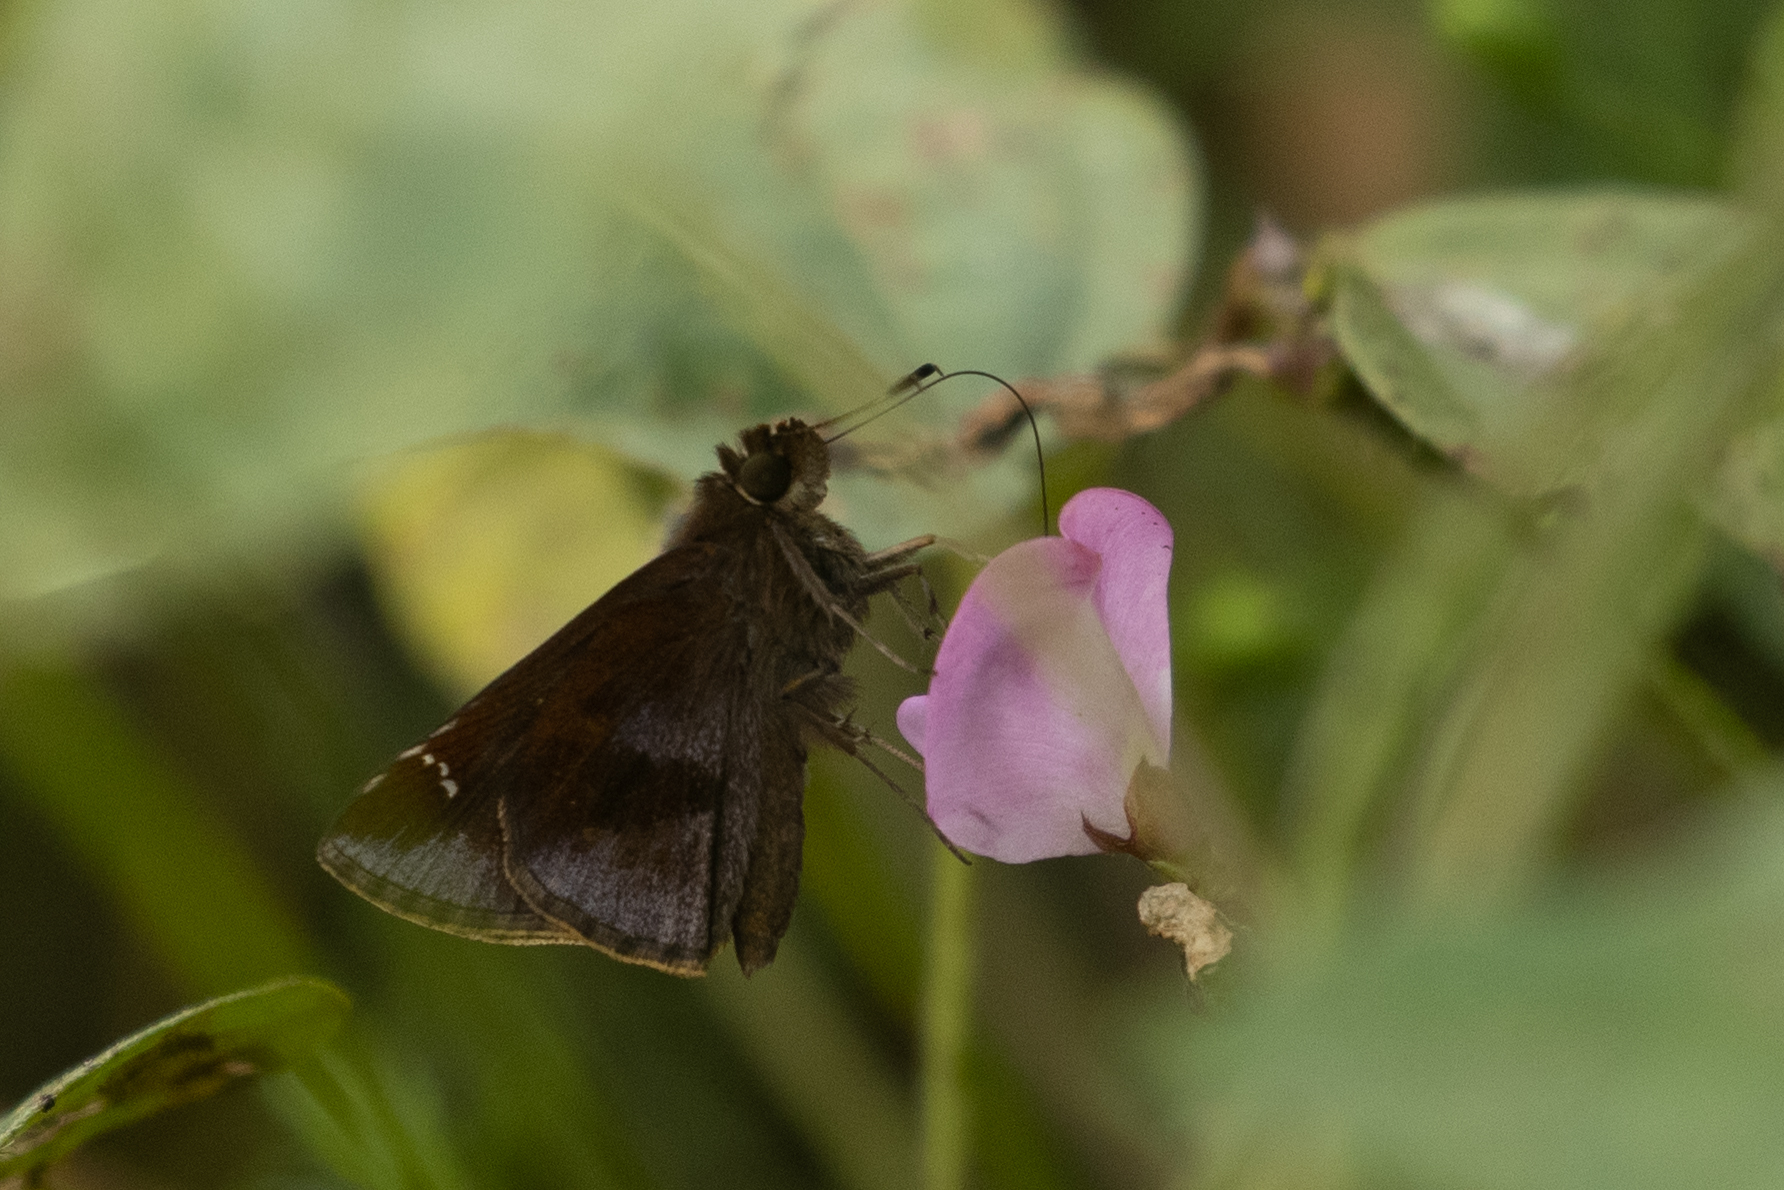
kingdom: Animalia
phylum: Arthropoda
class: Insecta
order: Lepidoptera
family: Hesperiidae
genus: Lerema
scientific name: Lerema accius
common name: Clouded skipper
